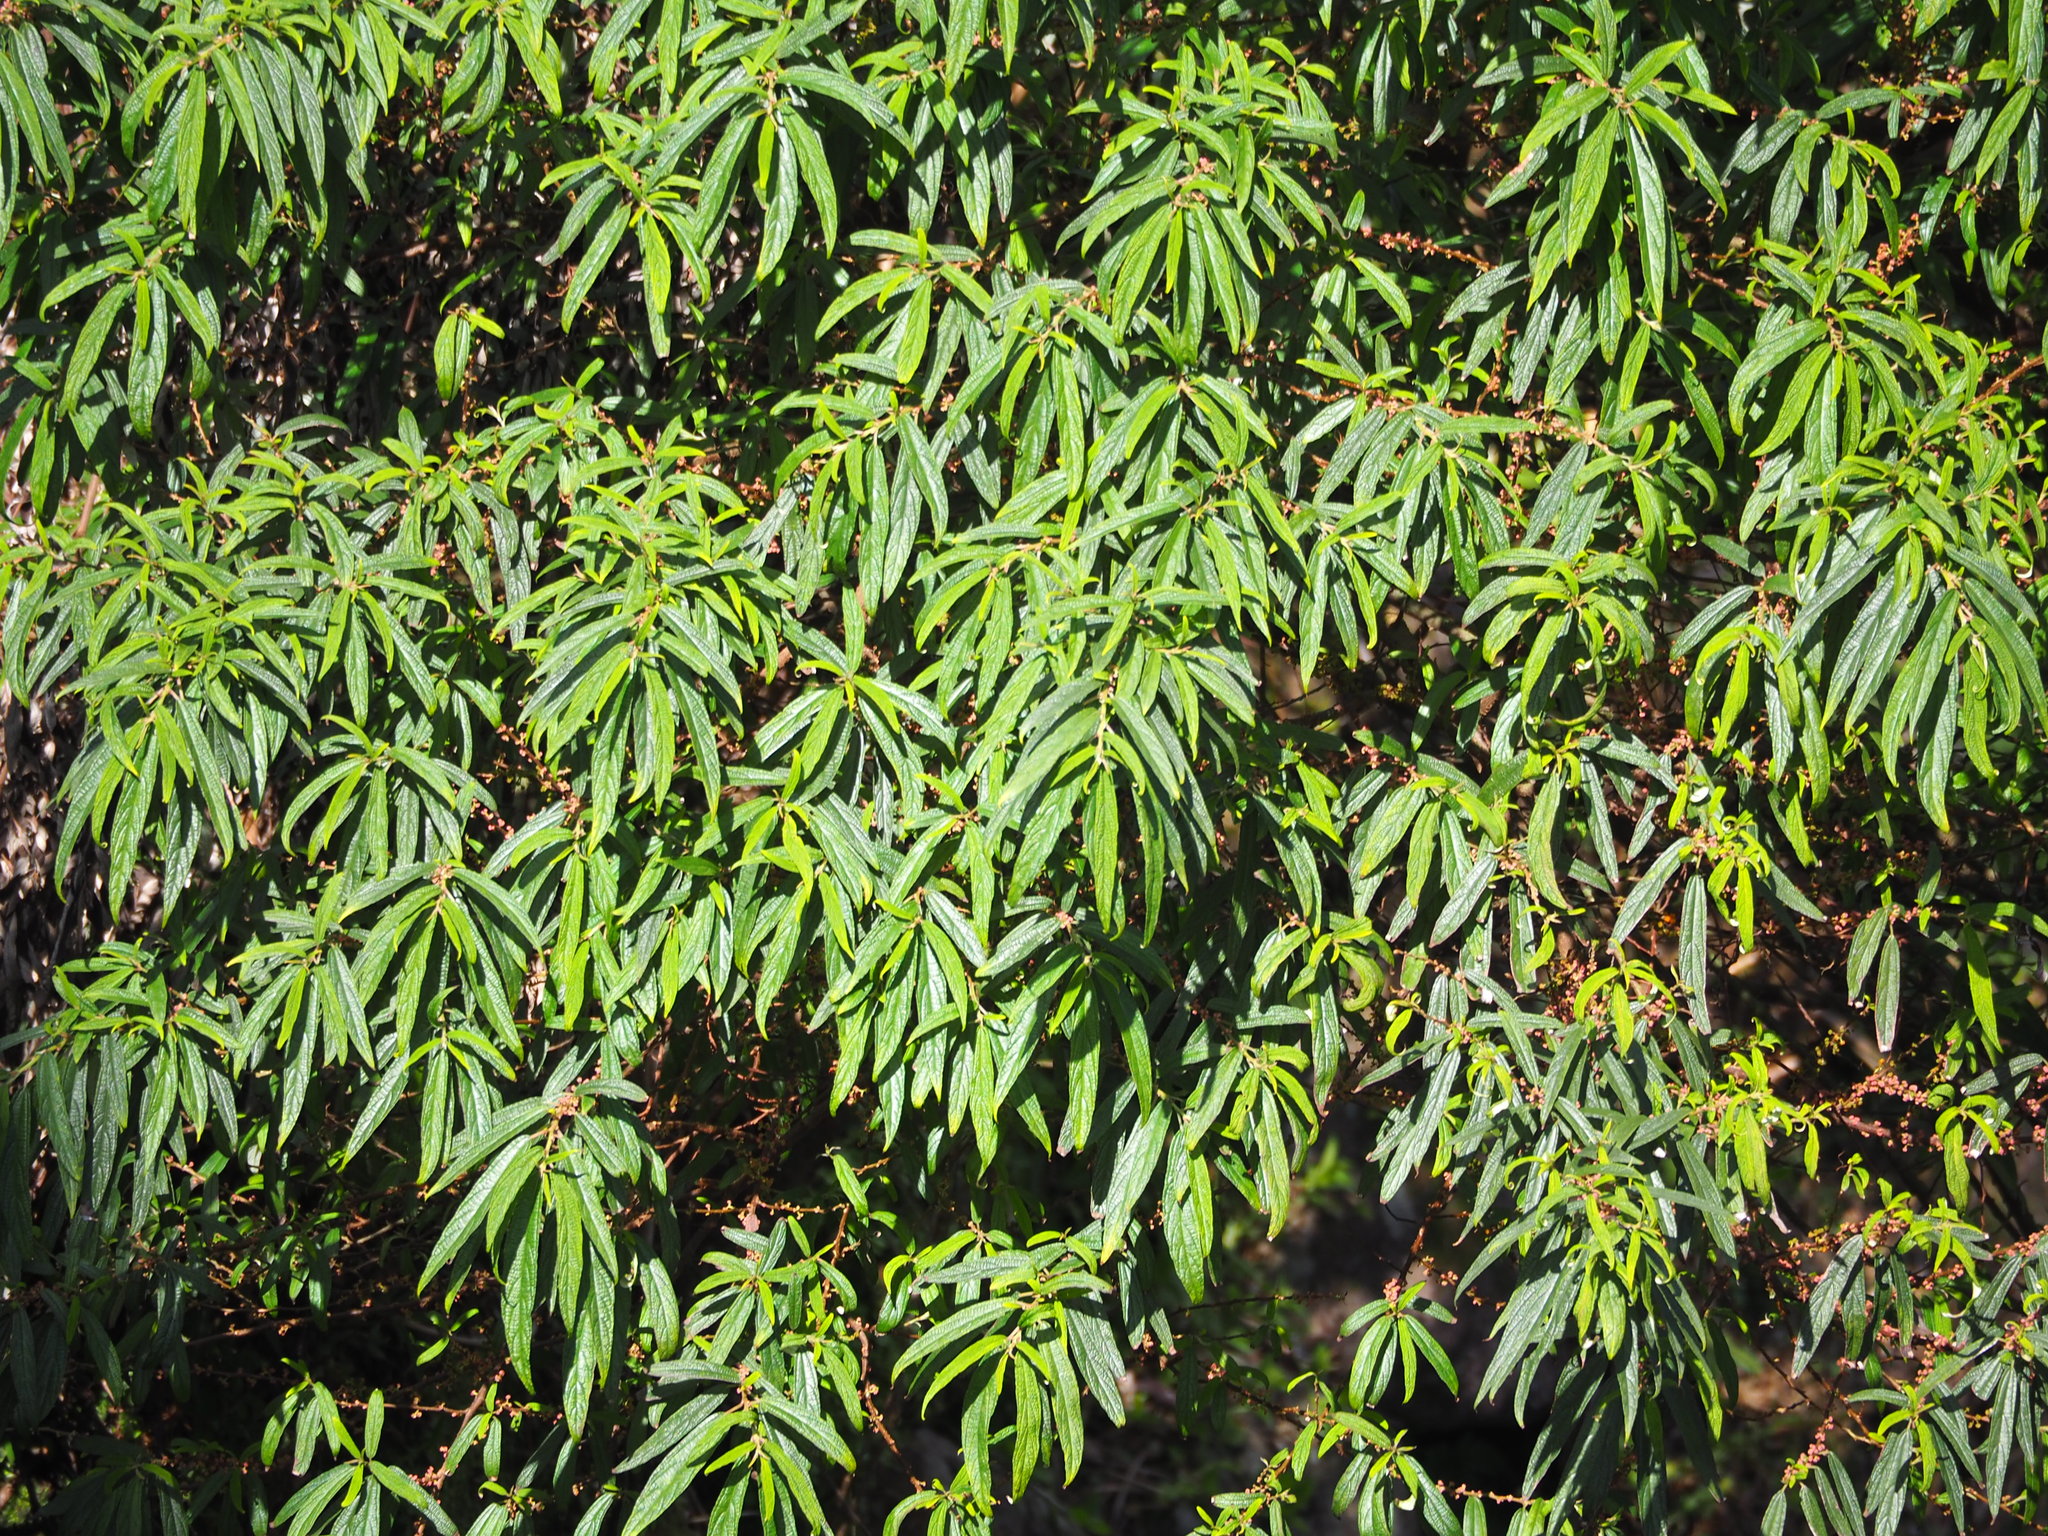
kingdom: Plantae
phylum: Tracheophyta
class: Magnoliopsida
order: Rosales
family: Urticaceae
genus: Debregeasia
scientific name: Debregeasia orientalis
